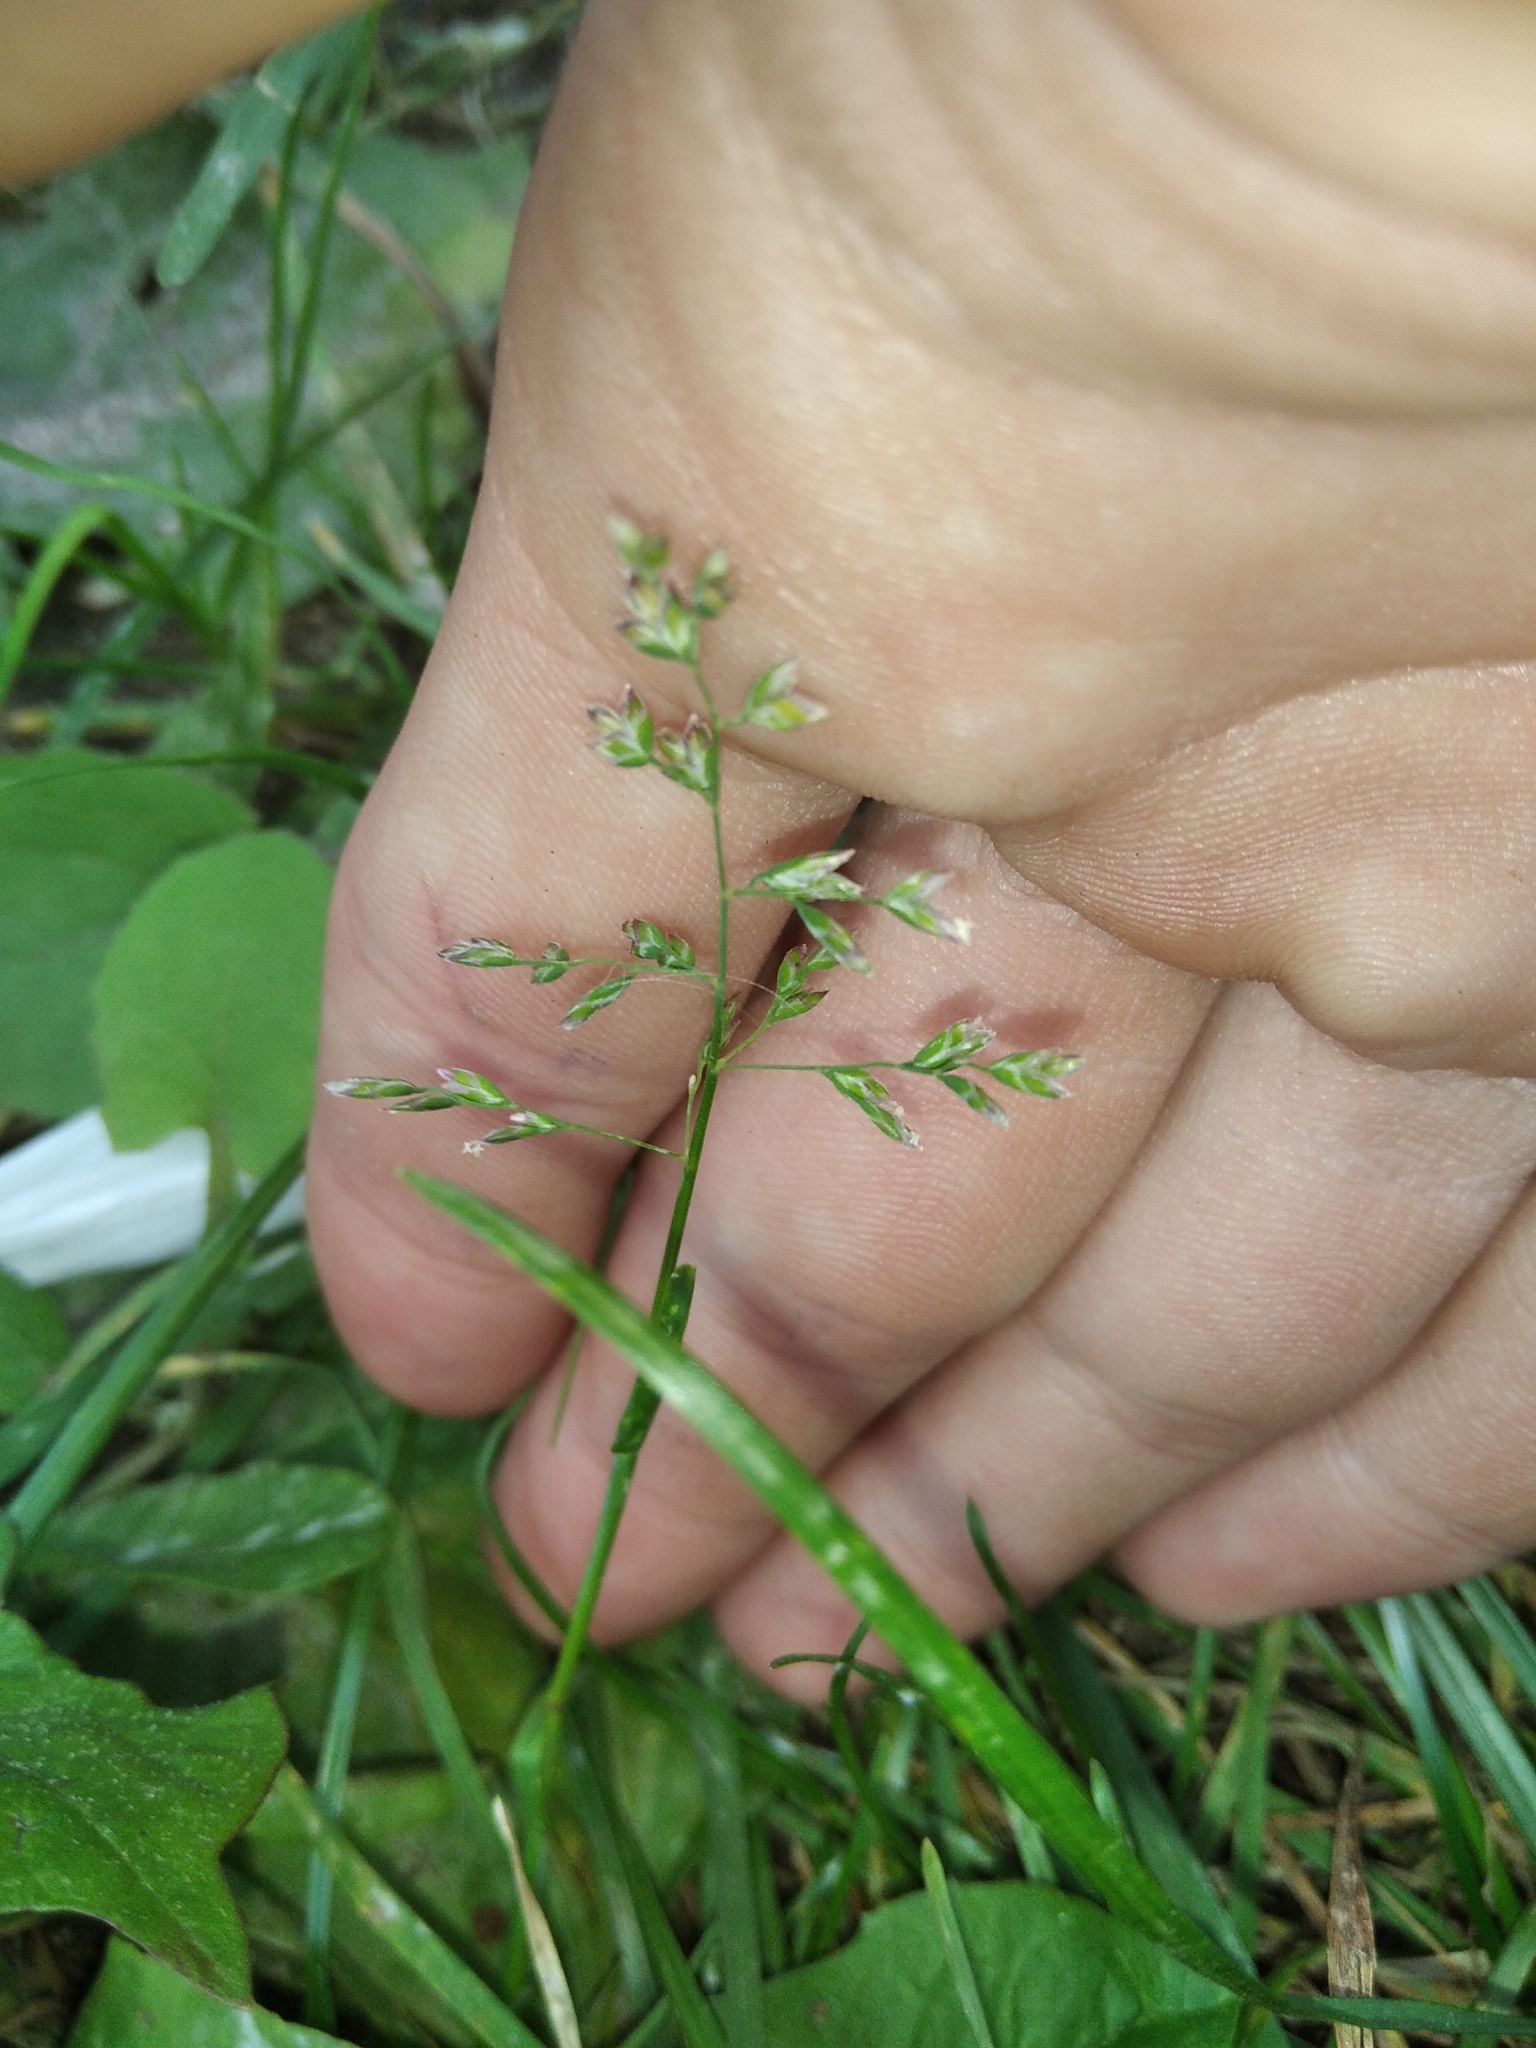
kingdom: Plantae
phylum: Tracheophyta
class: Liliopsida
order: Poales
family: Poaceae
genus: Poa
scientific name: Poa annua
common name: Annual bluegrass
